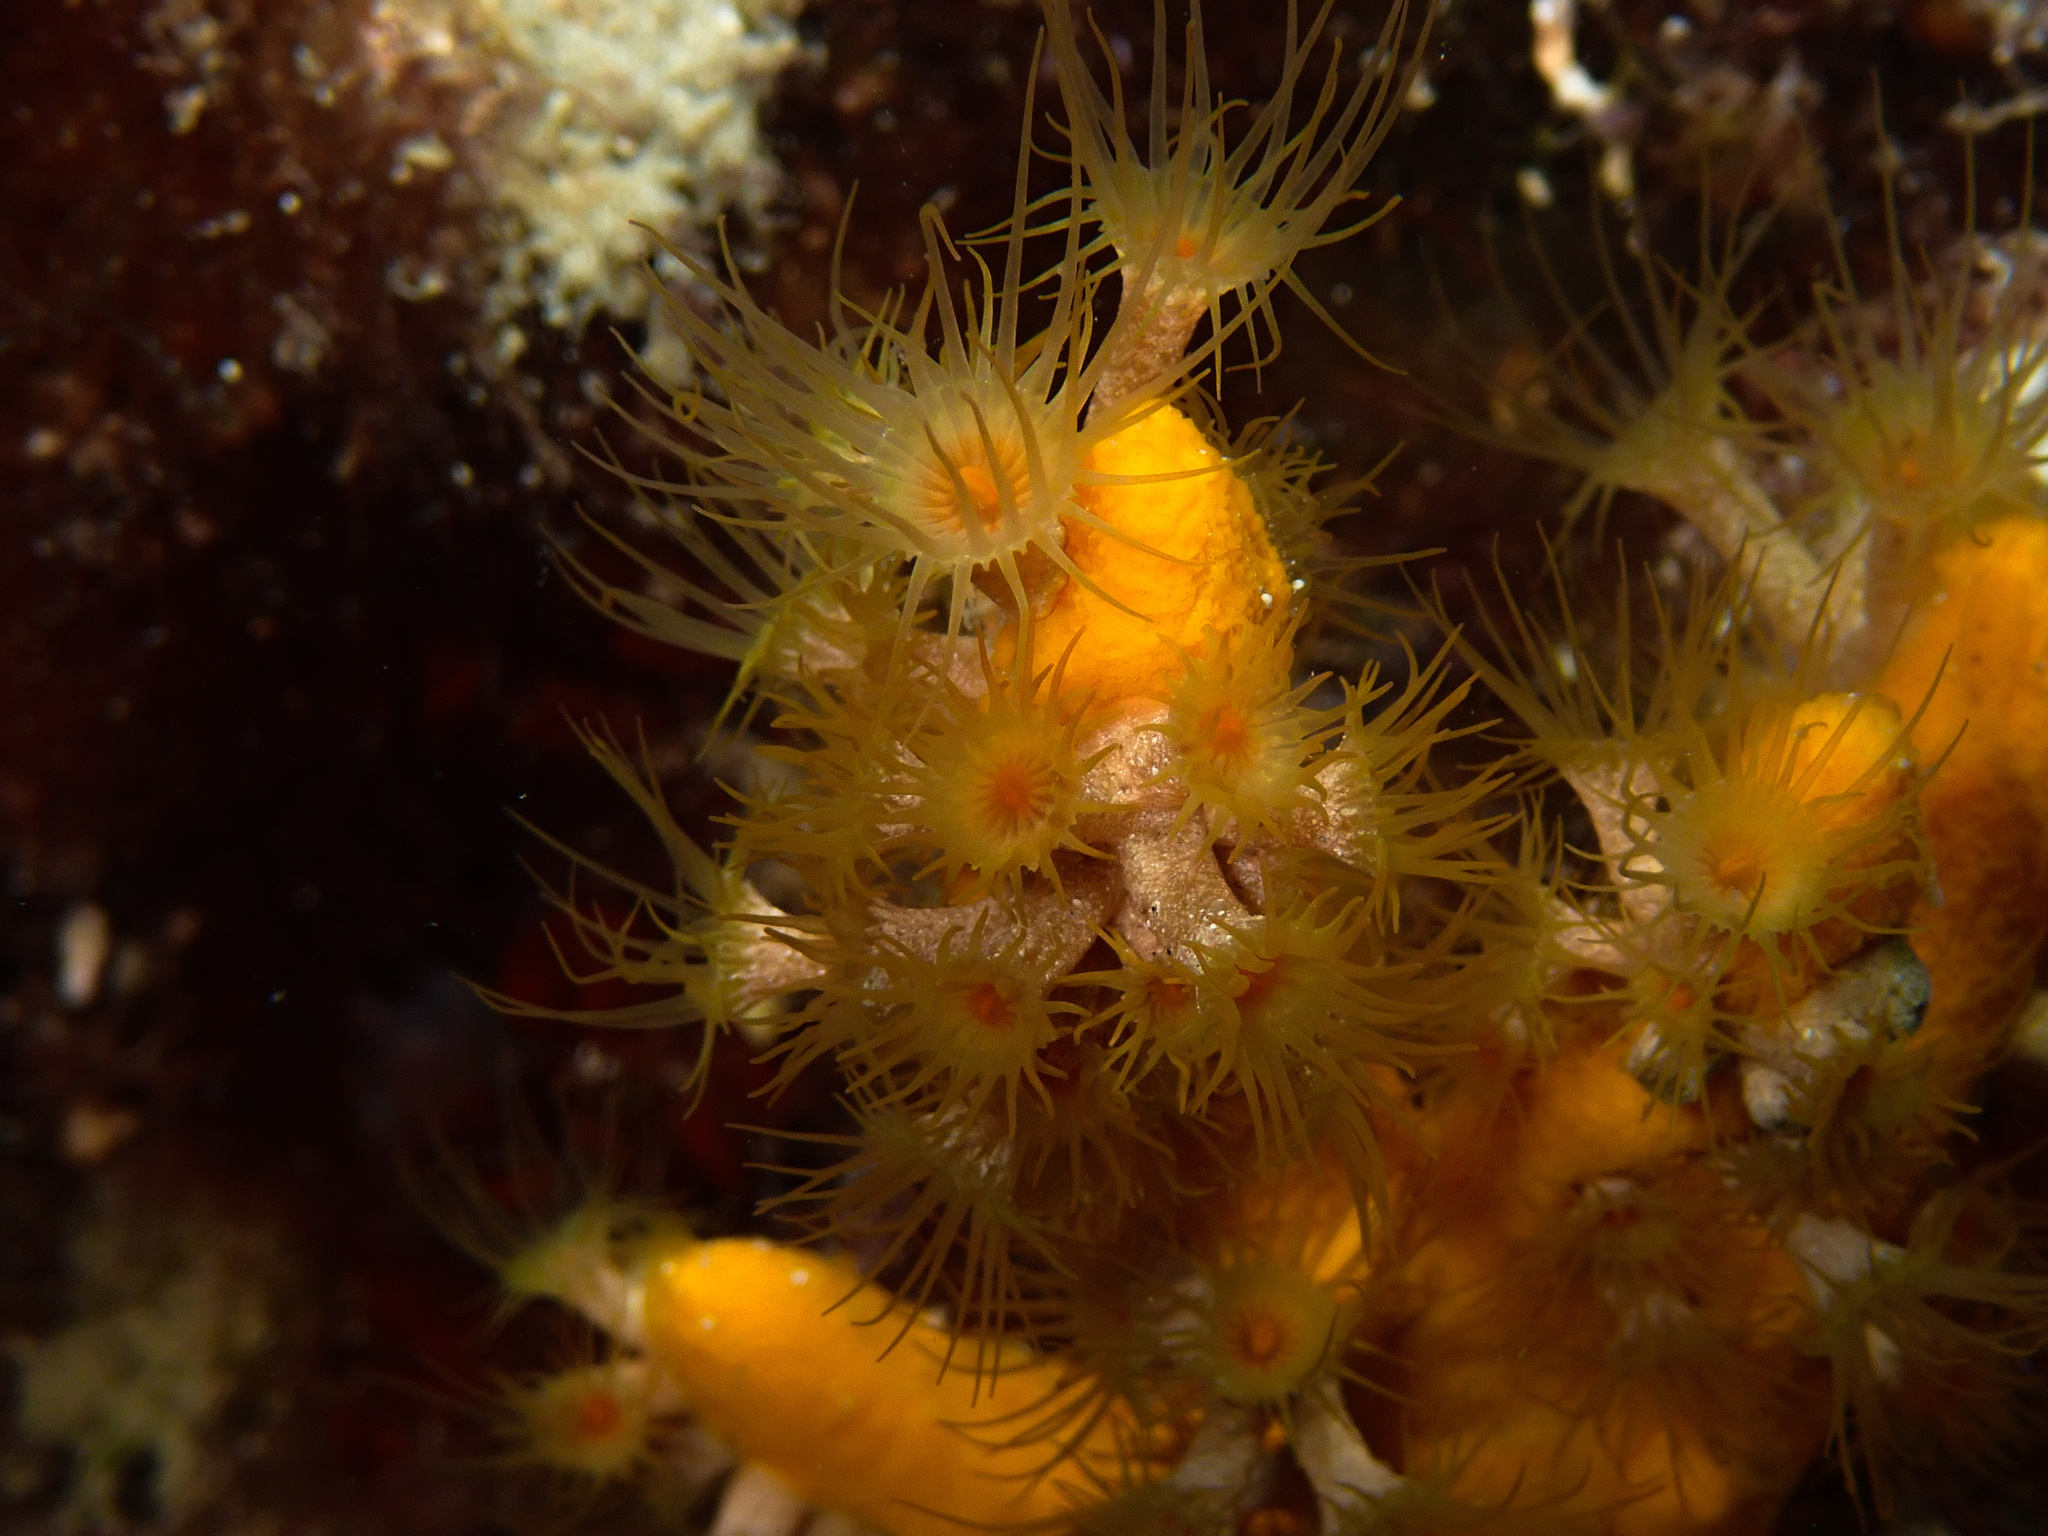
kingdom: Animalia
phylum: Cnidaria
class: Anthozoa
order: Zoantharia
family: Parazoanthidae
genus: Parazoanthus
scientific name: Parazoanthus axinellae
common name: Yellow cluster anemone
